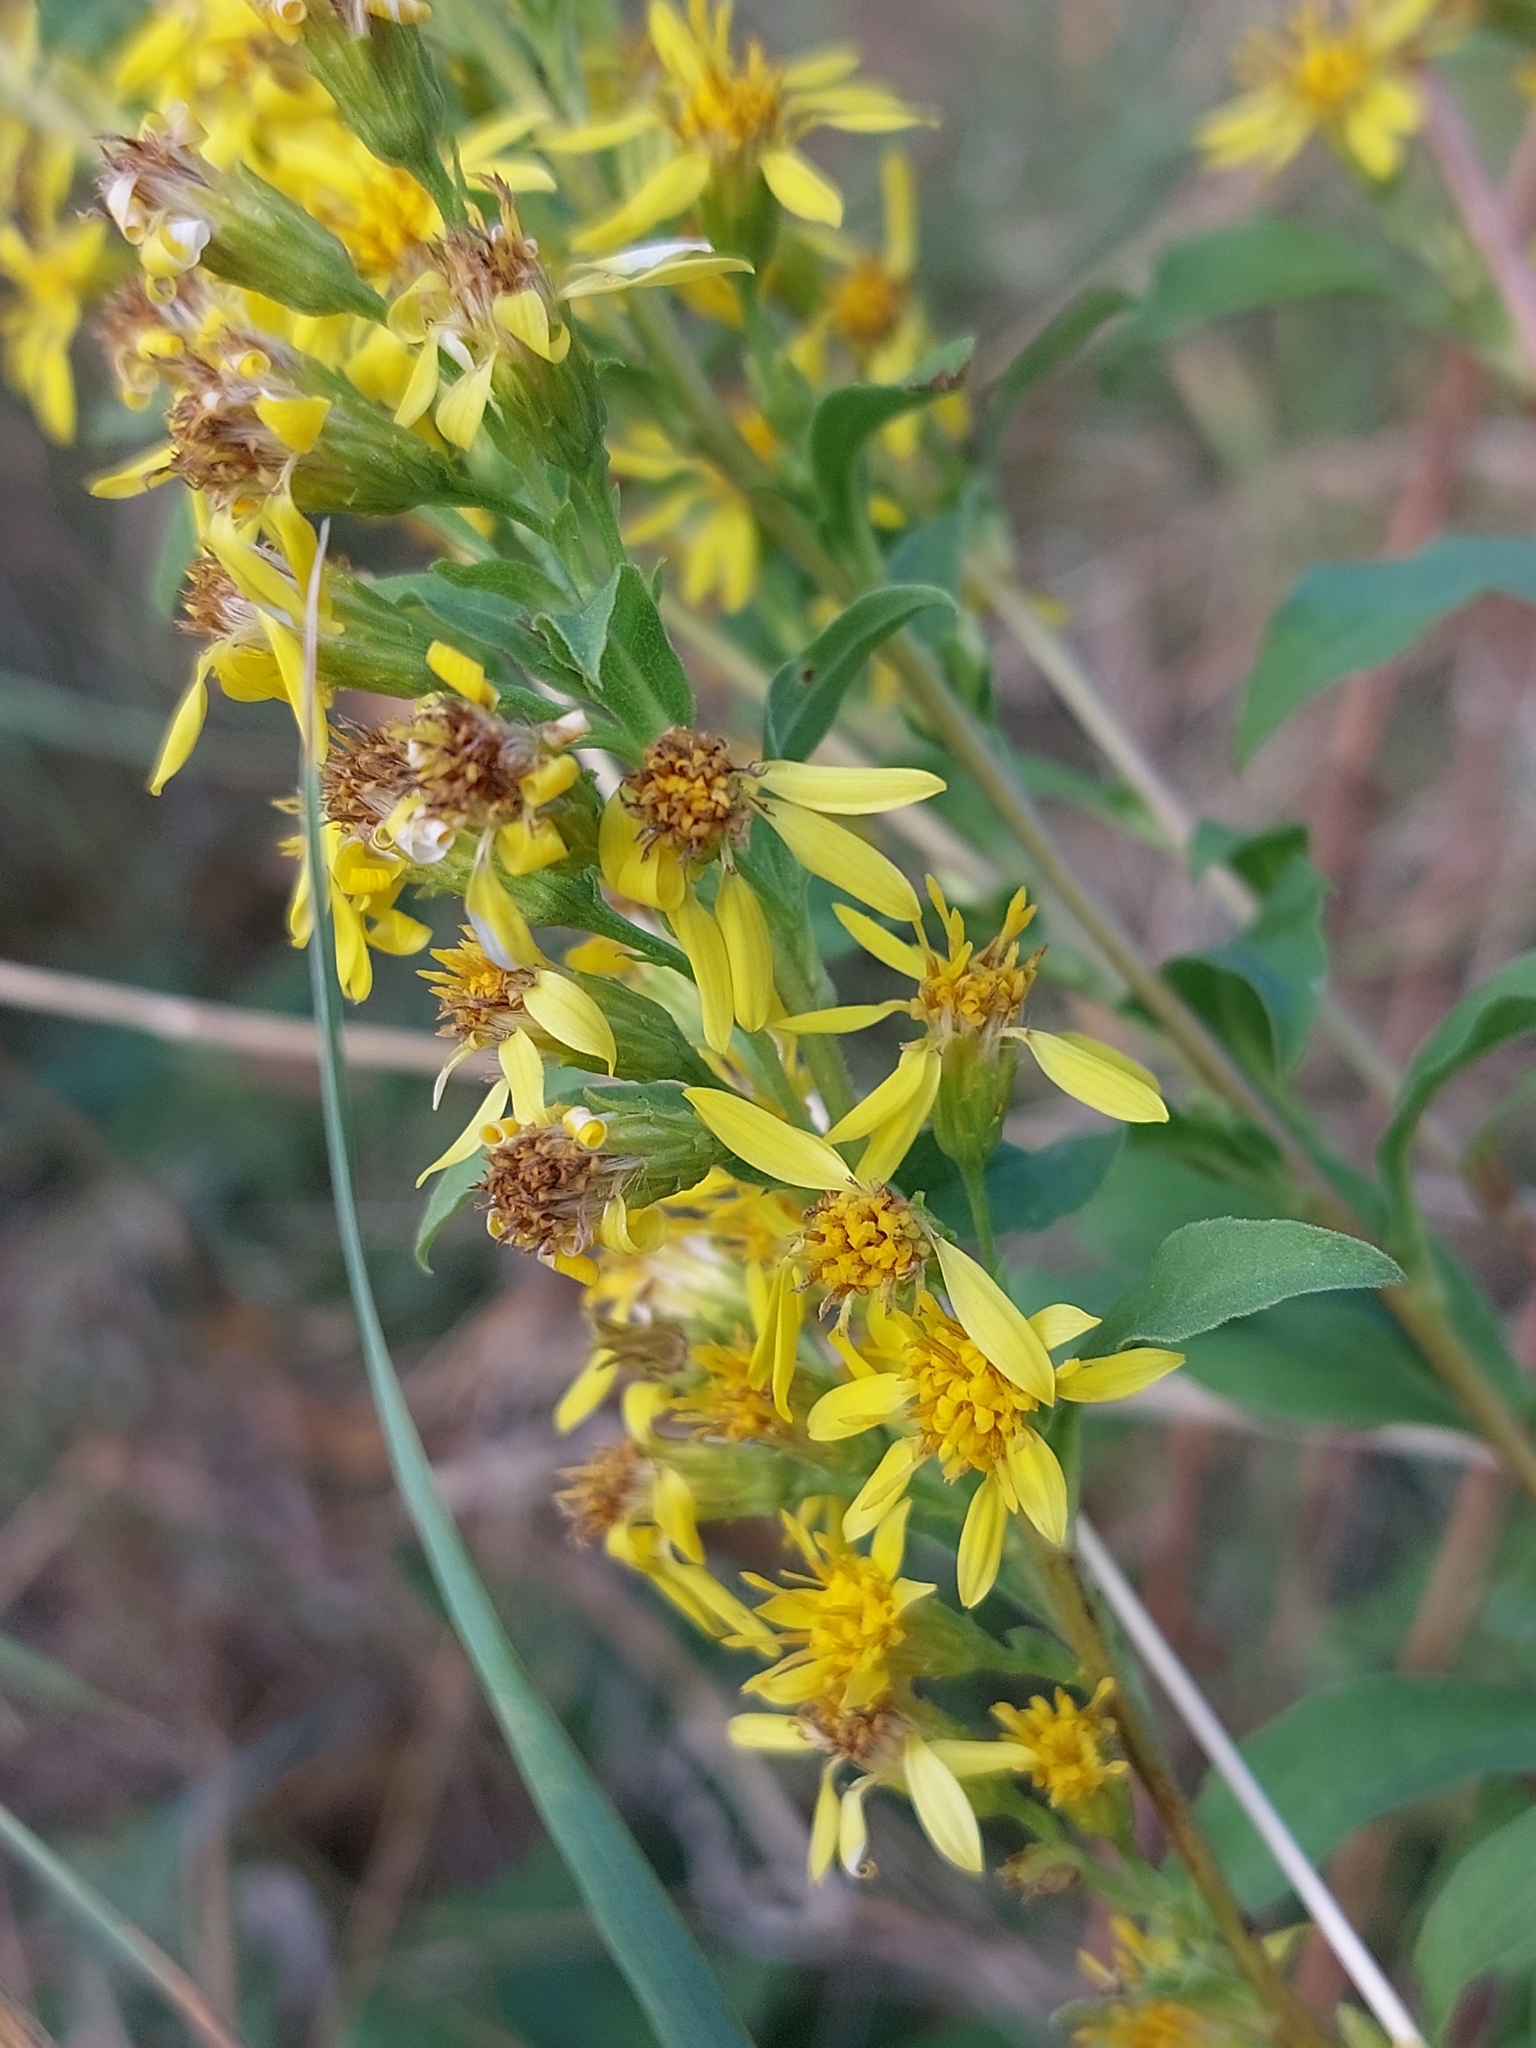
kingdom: Plantae
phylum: Tracheophyta
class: Magnoliopsida
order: Asterales
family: Asteraceae
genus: Solidago
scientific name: Solidago virgaurea
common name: Goldenrod
